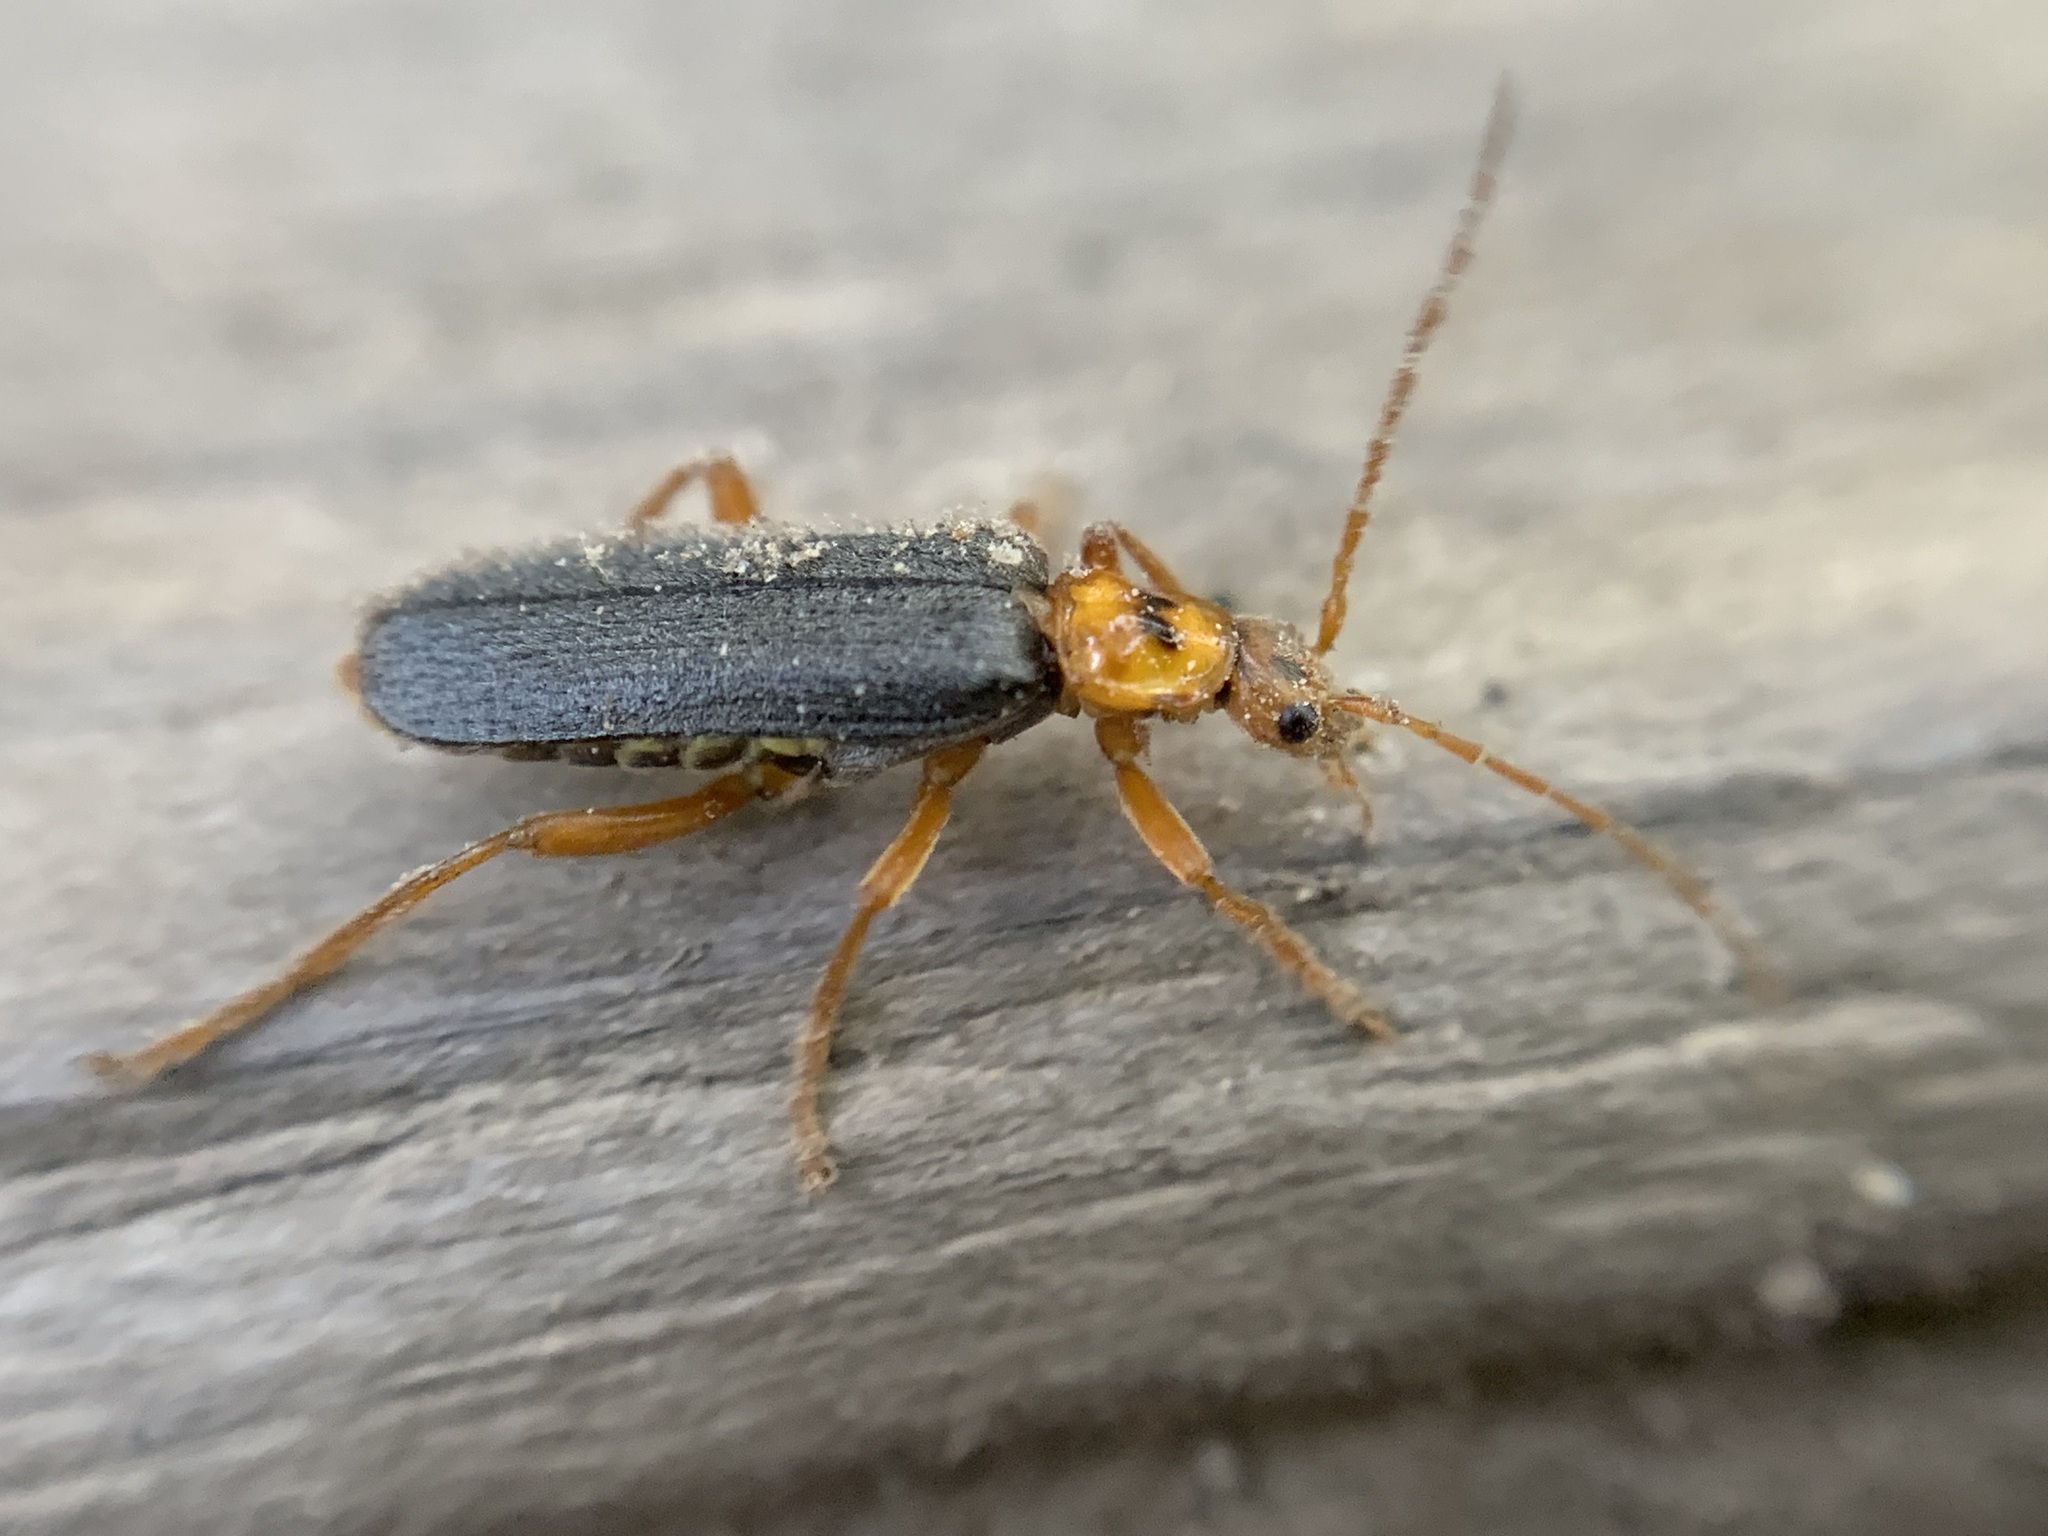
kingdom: Animalia
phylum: Arthropoda
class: Insecta
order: Coleoptera
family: Cantharidae
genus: Cultellunguis
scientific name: Cultellunguis americanus
